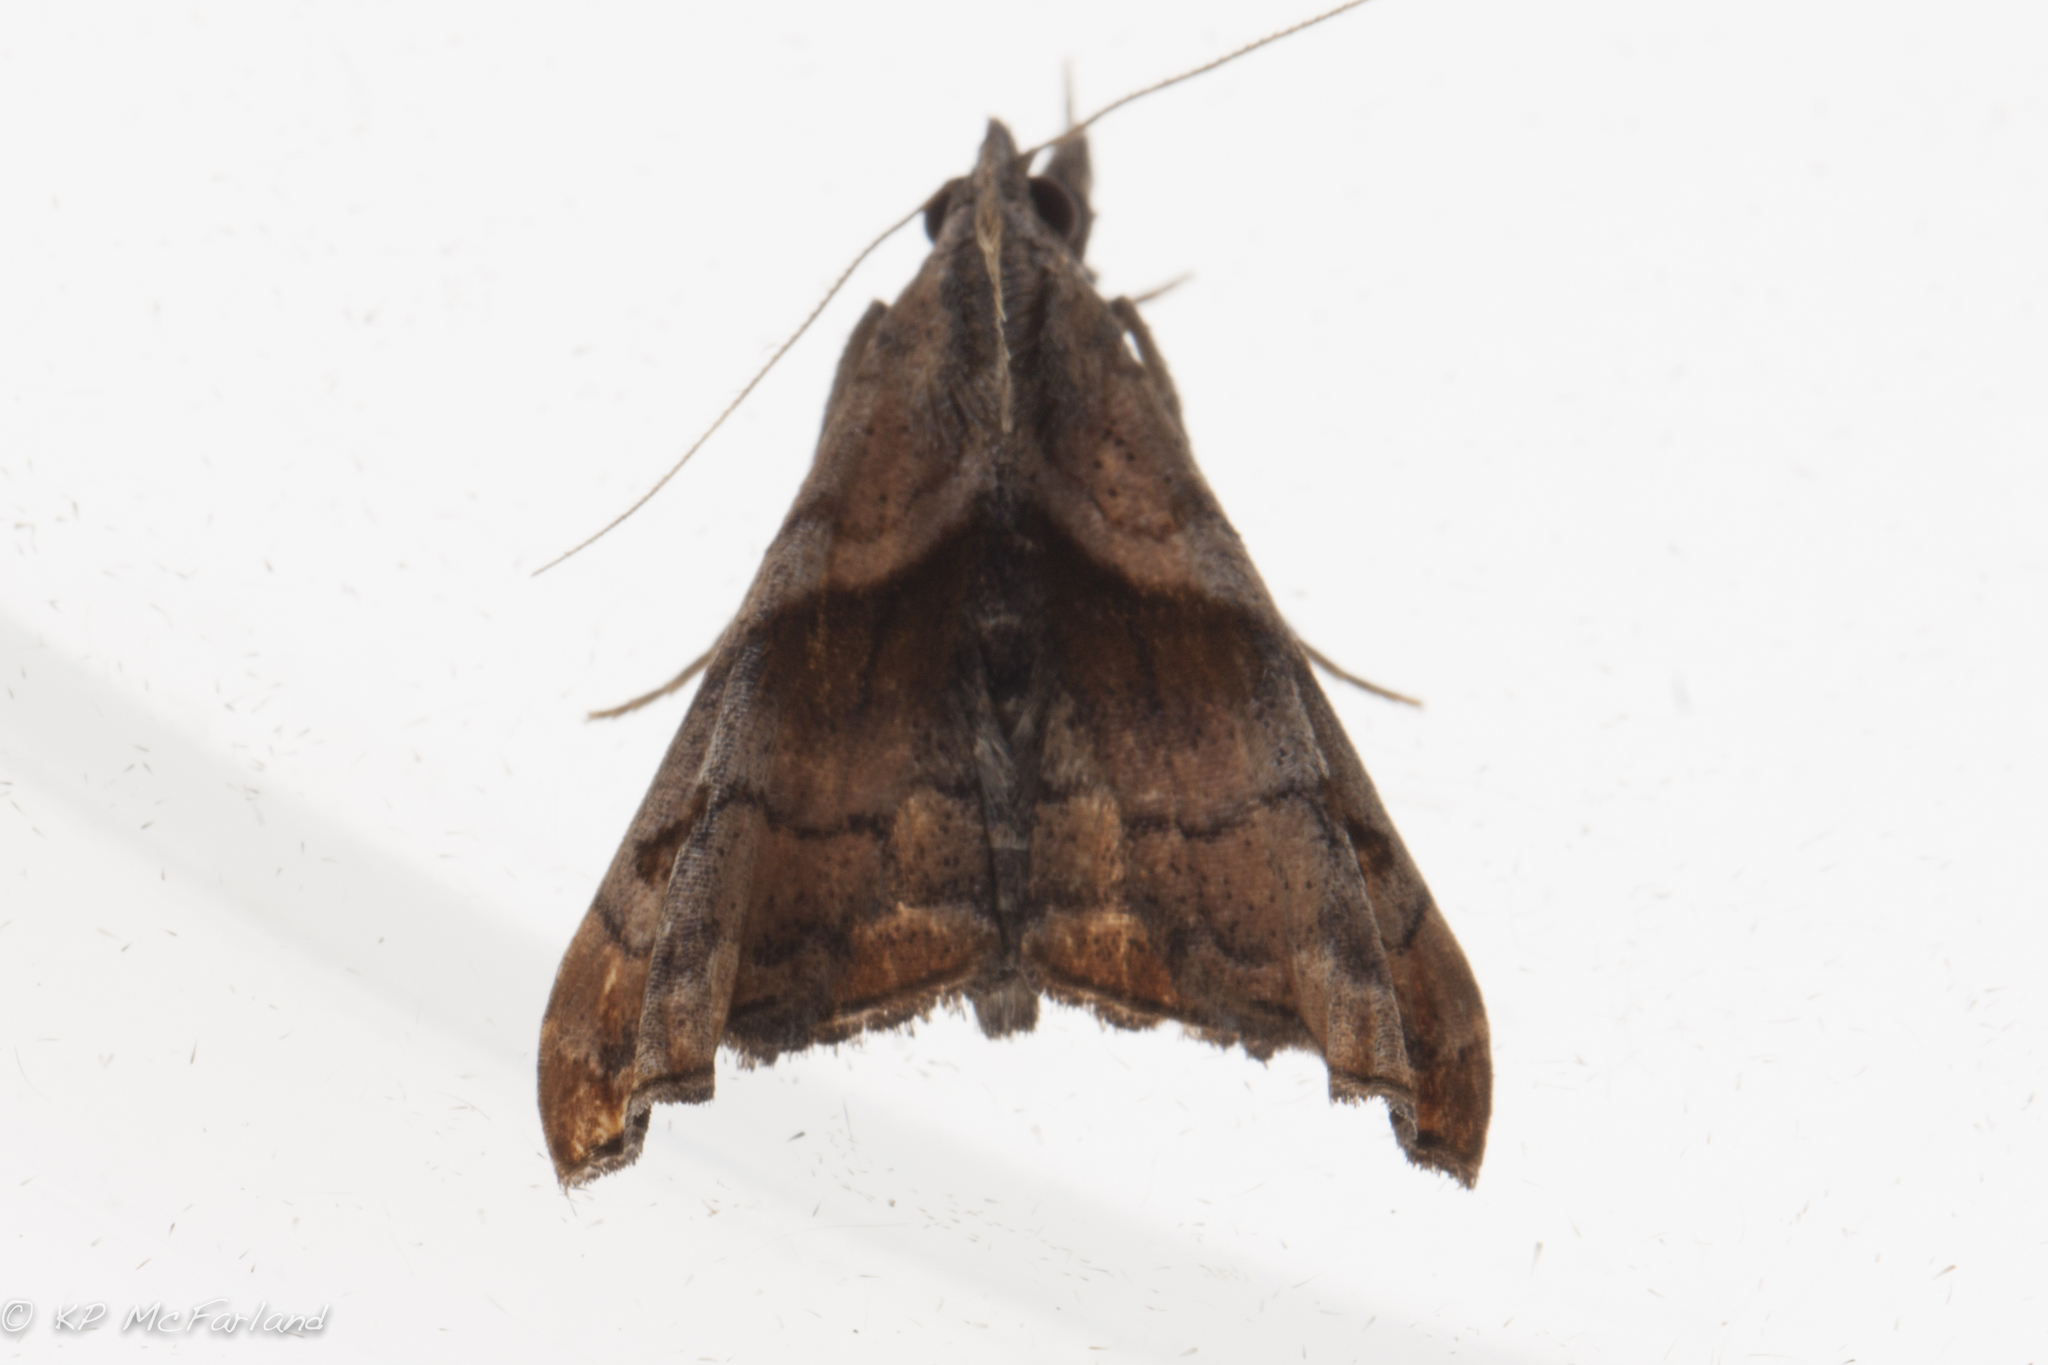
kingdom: Animalia
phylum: Arthropoda
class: Insecta
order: Lepidoptera
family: Erebidae
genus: Palthis
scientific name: Palthis angulalis
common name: Dark-spotted palthis moth
